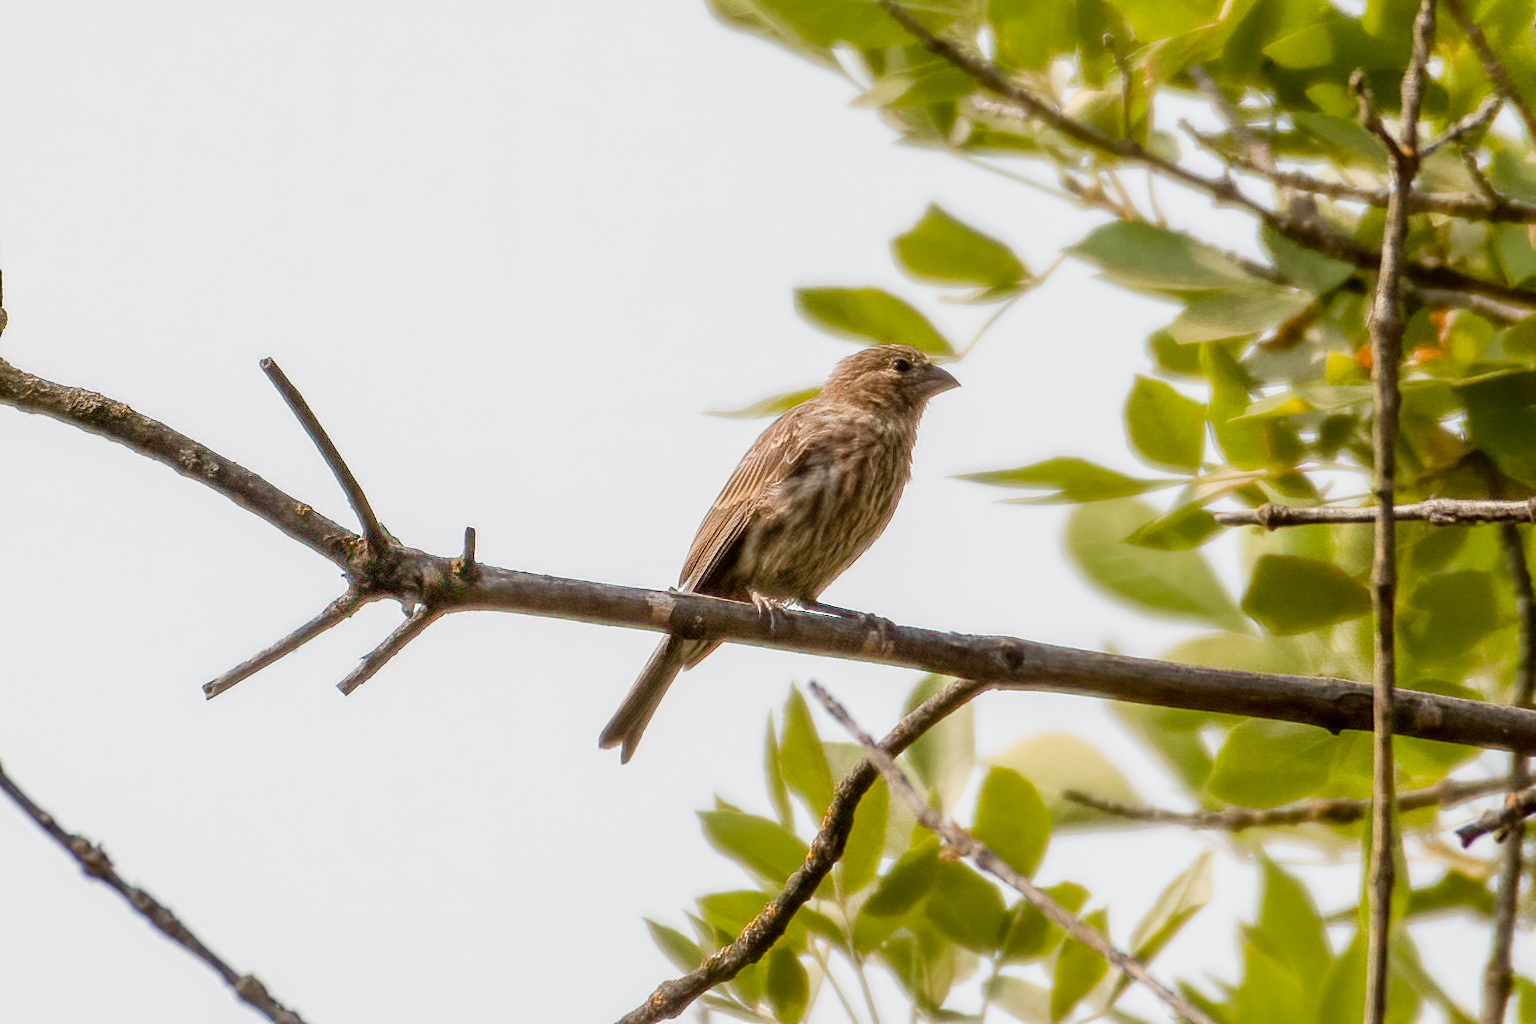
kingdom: Animalia
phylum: Chordata
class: Aves
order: Passeriformes
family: Fringillidae
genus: Haemorhous
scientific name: Haemorhous mexicanus
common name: House finch
